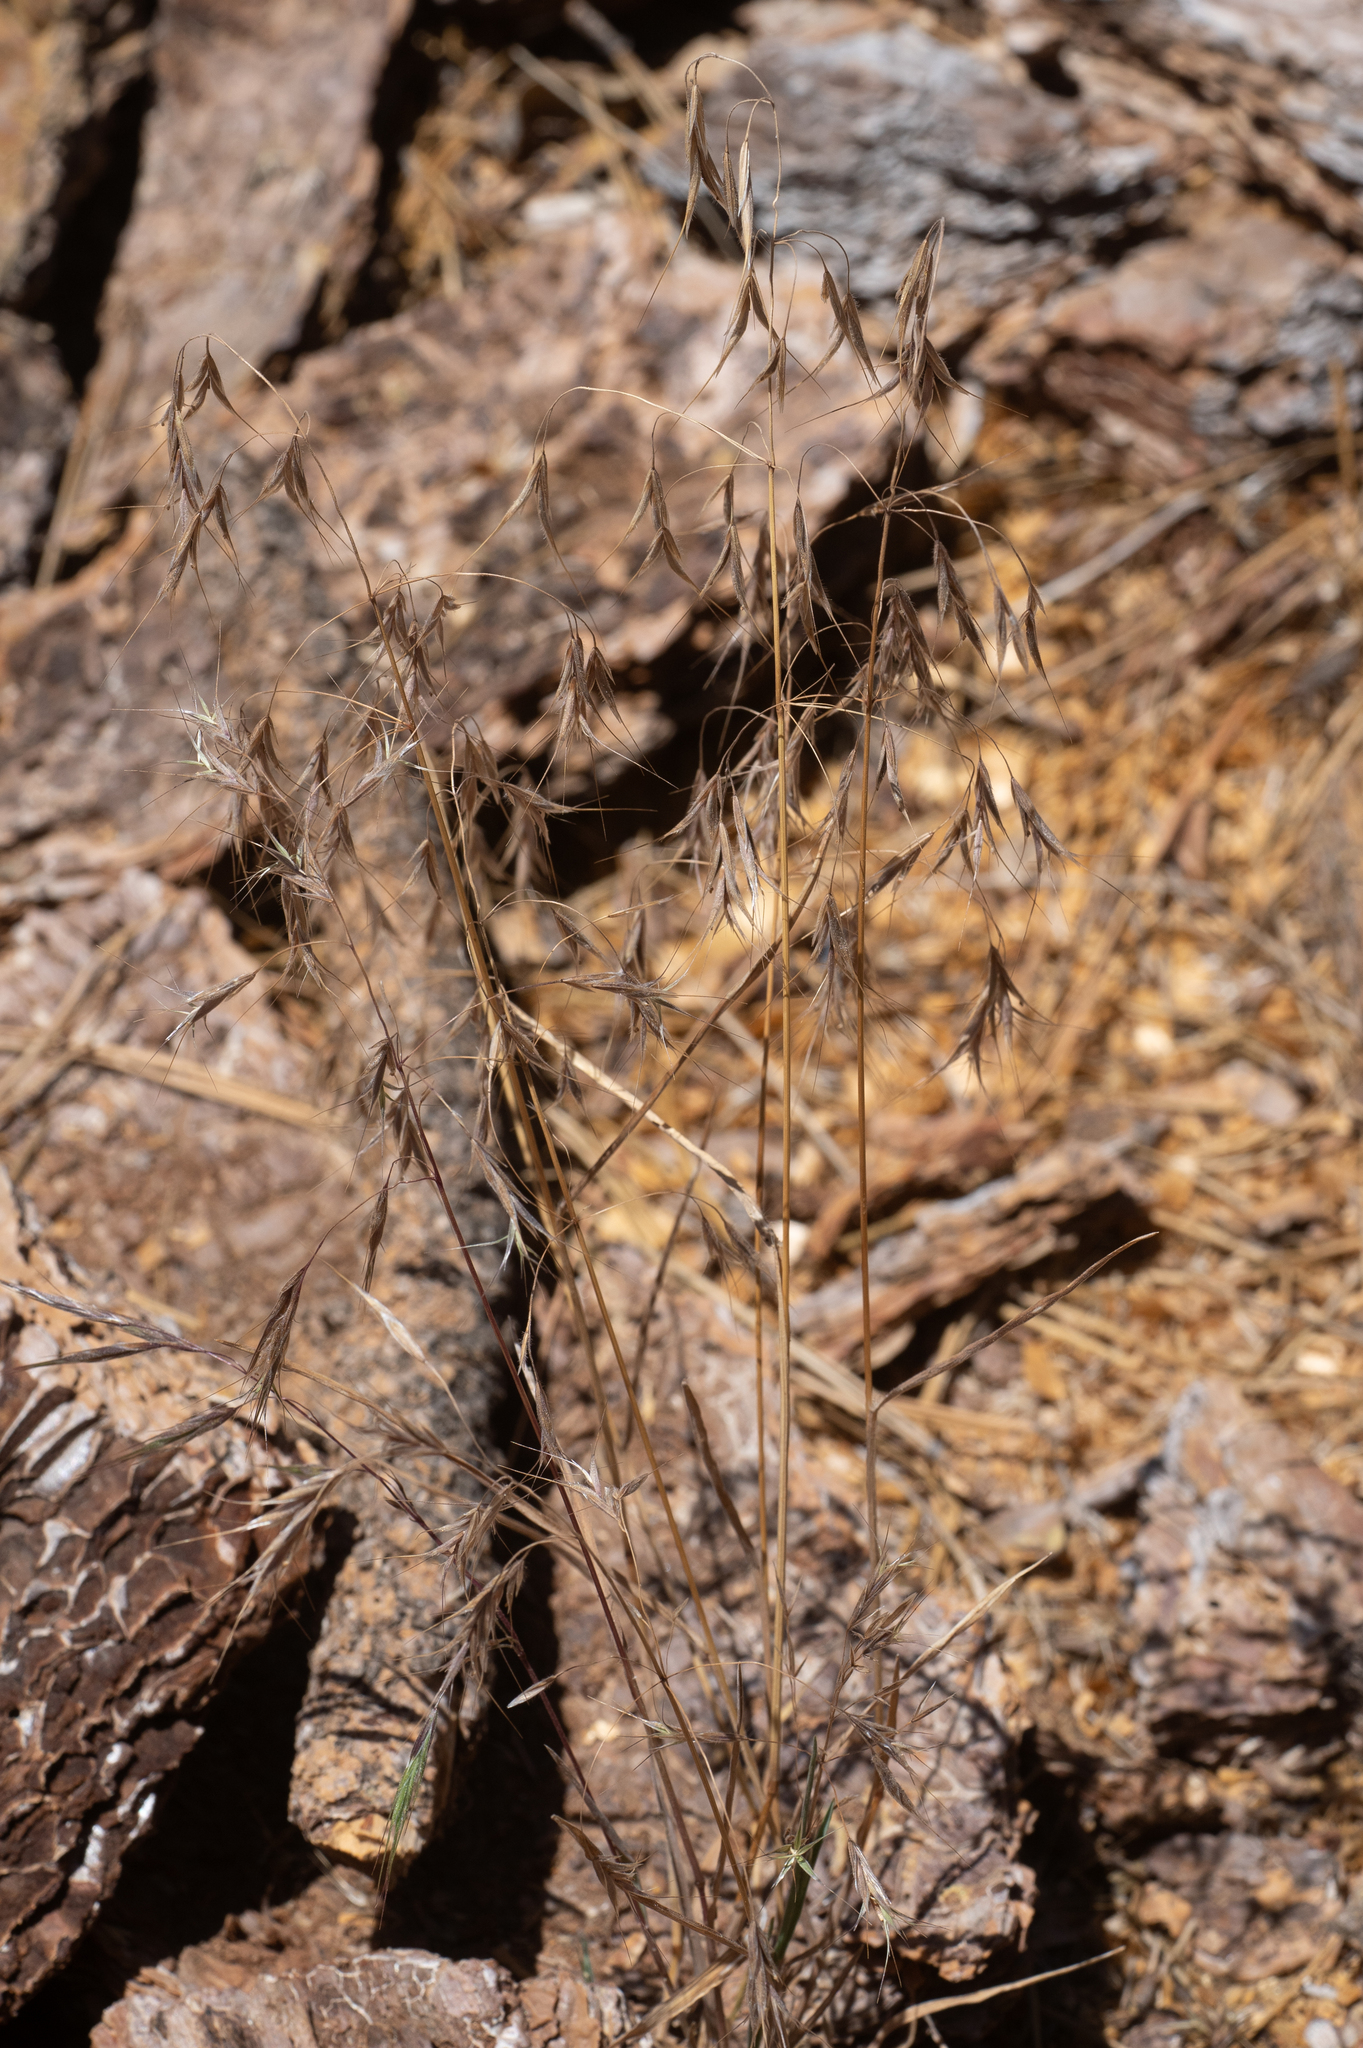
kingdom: Plantae
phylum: Tracheophyta
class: Liliopsida
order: Poales
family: Poaceae
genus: Bromus
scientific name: Bromus tectorum
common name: Cheatgrass
